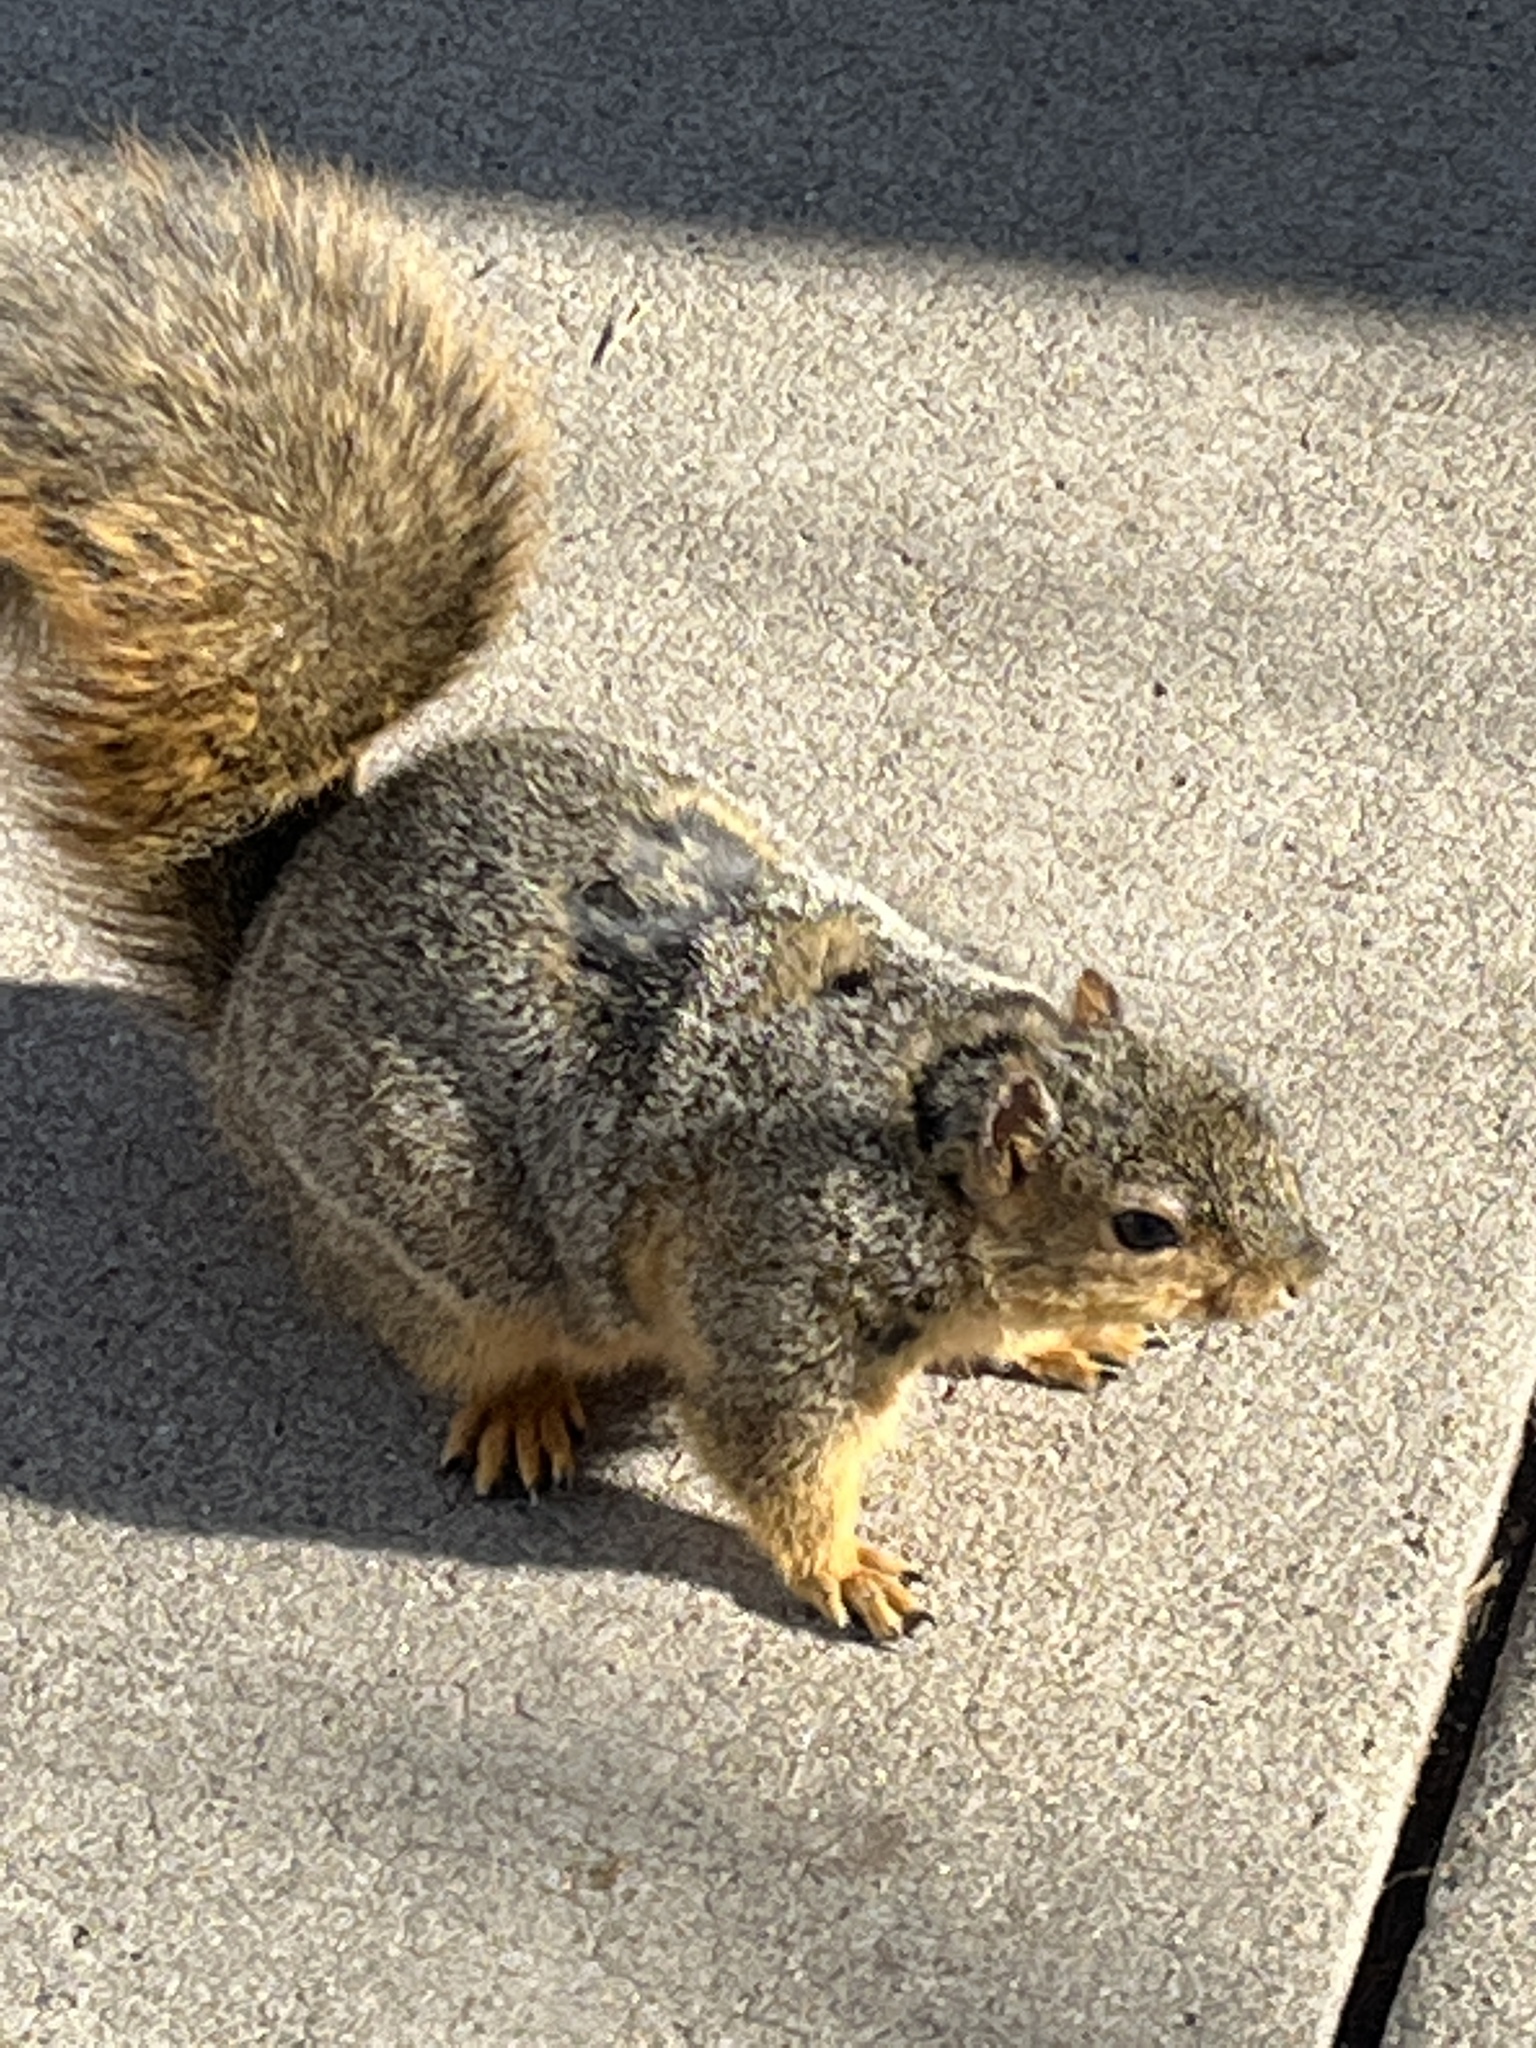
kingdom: Animalia
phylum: Chordata
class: Mammalia
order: Rodentia
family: Sciuridae
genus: Sciurus
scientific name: Sciurus niger
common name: Fox squirrel
